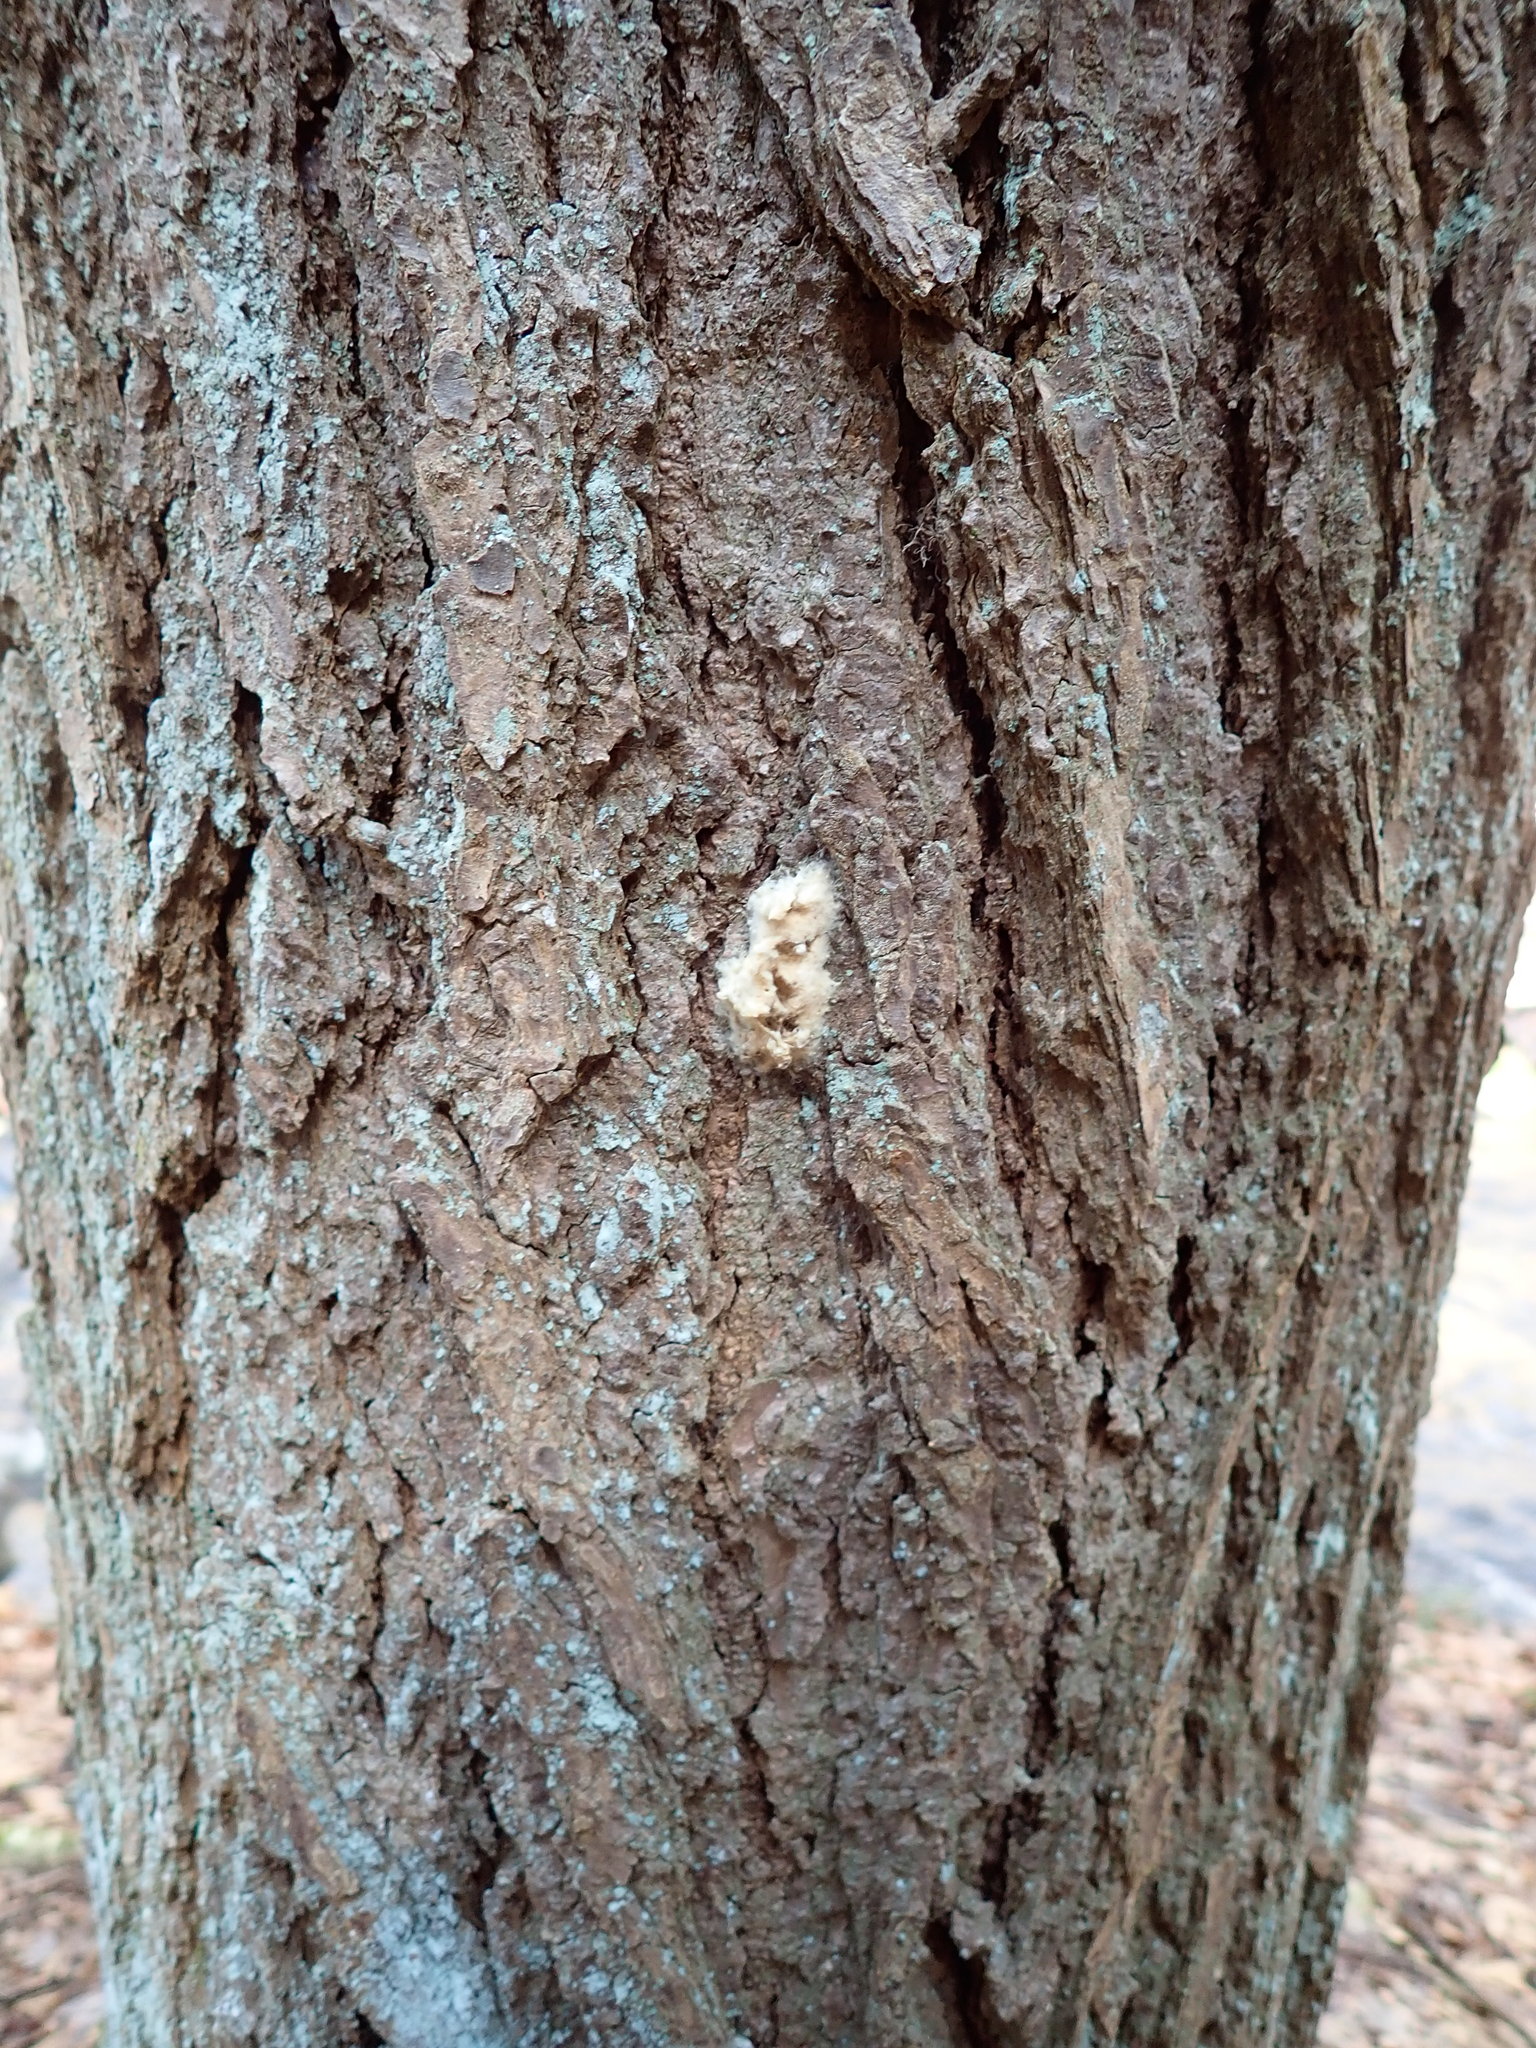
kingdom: Animalia
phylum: Arthropoda
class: Insecta
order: Lepidoptera
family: Erebidae
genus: Lymantria
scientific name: Lymantria dispar
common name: Gypsy moth
